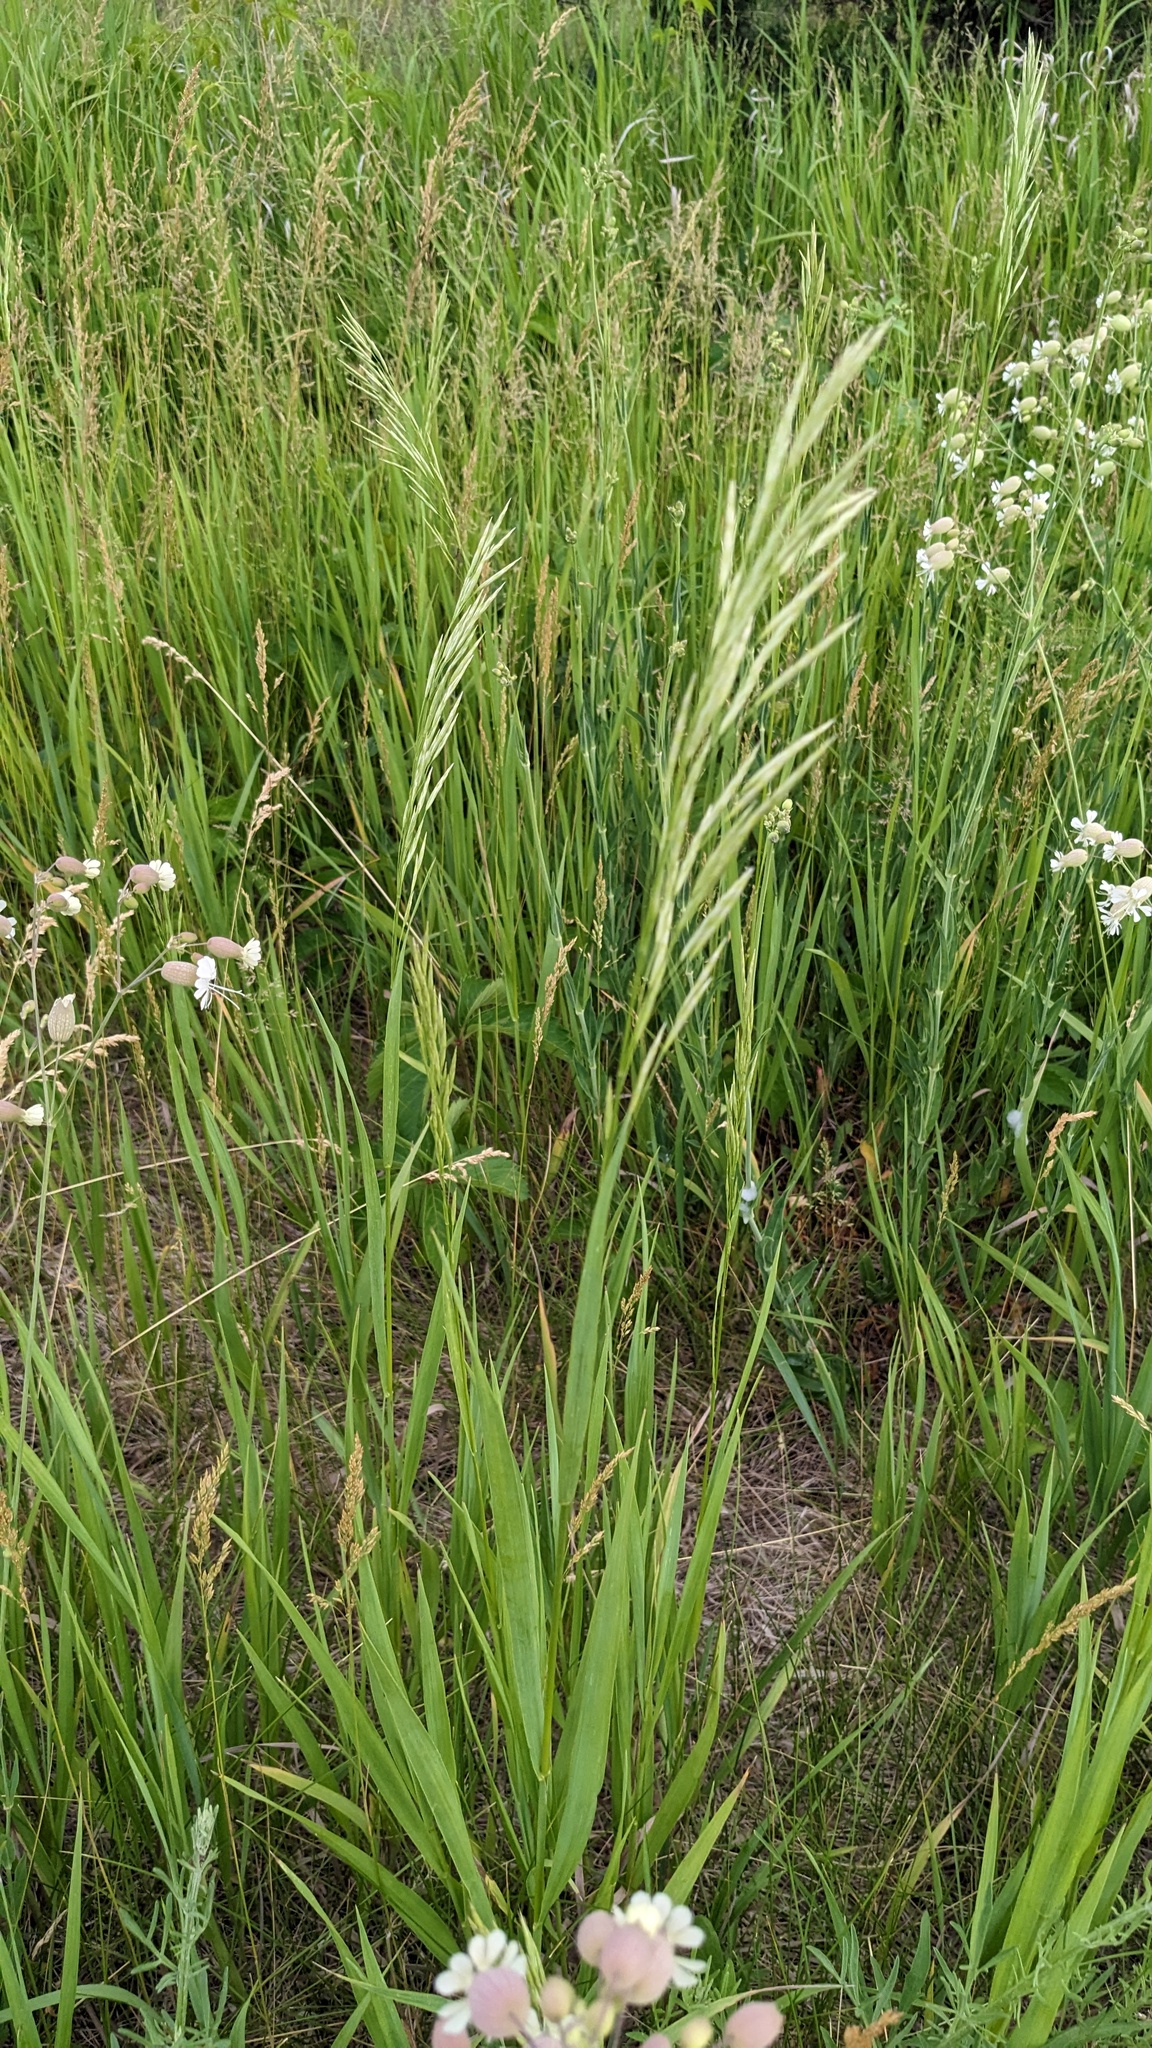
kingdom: Plantae
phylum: Tracheophyta
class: Liliopsida
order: Poales
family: Poaceae
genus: Bromus
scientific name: Bromus inermis
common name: Smooth brome
